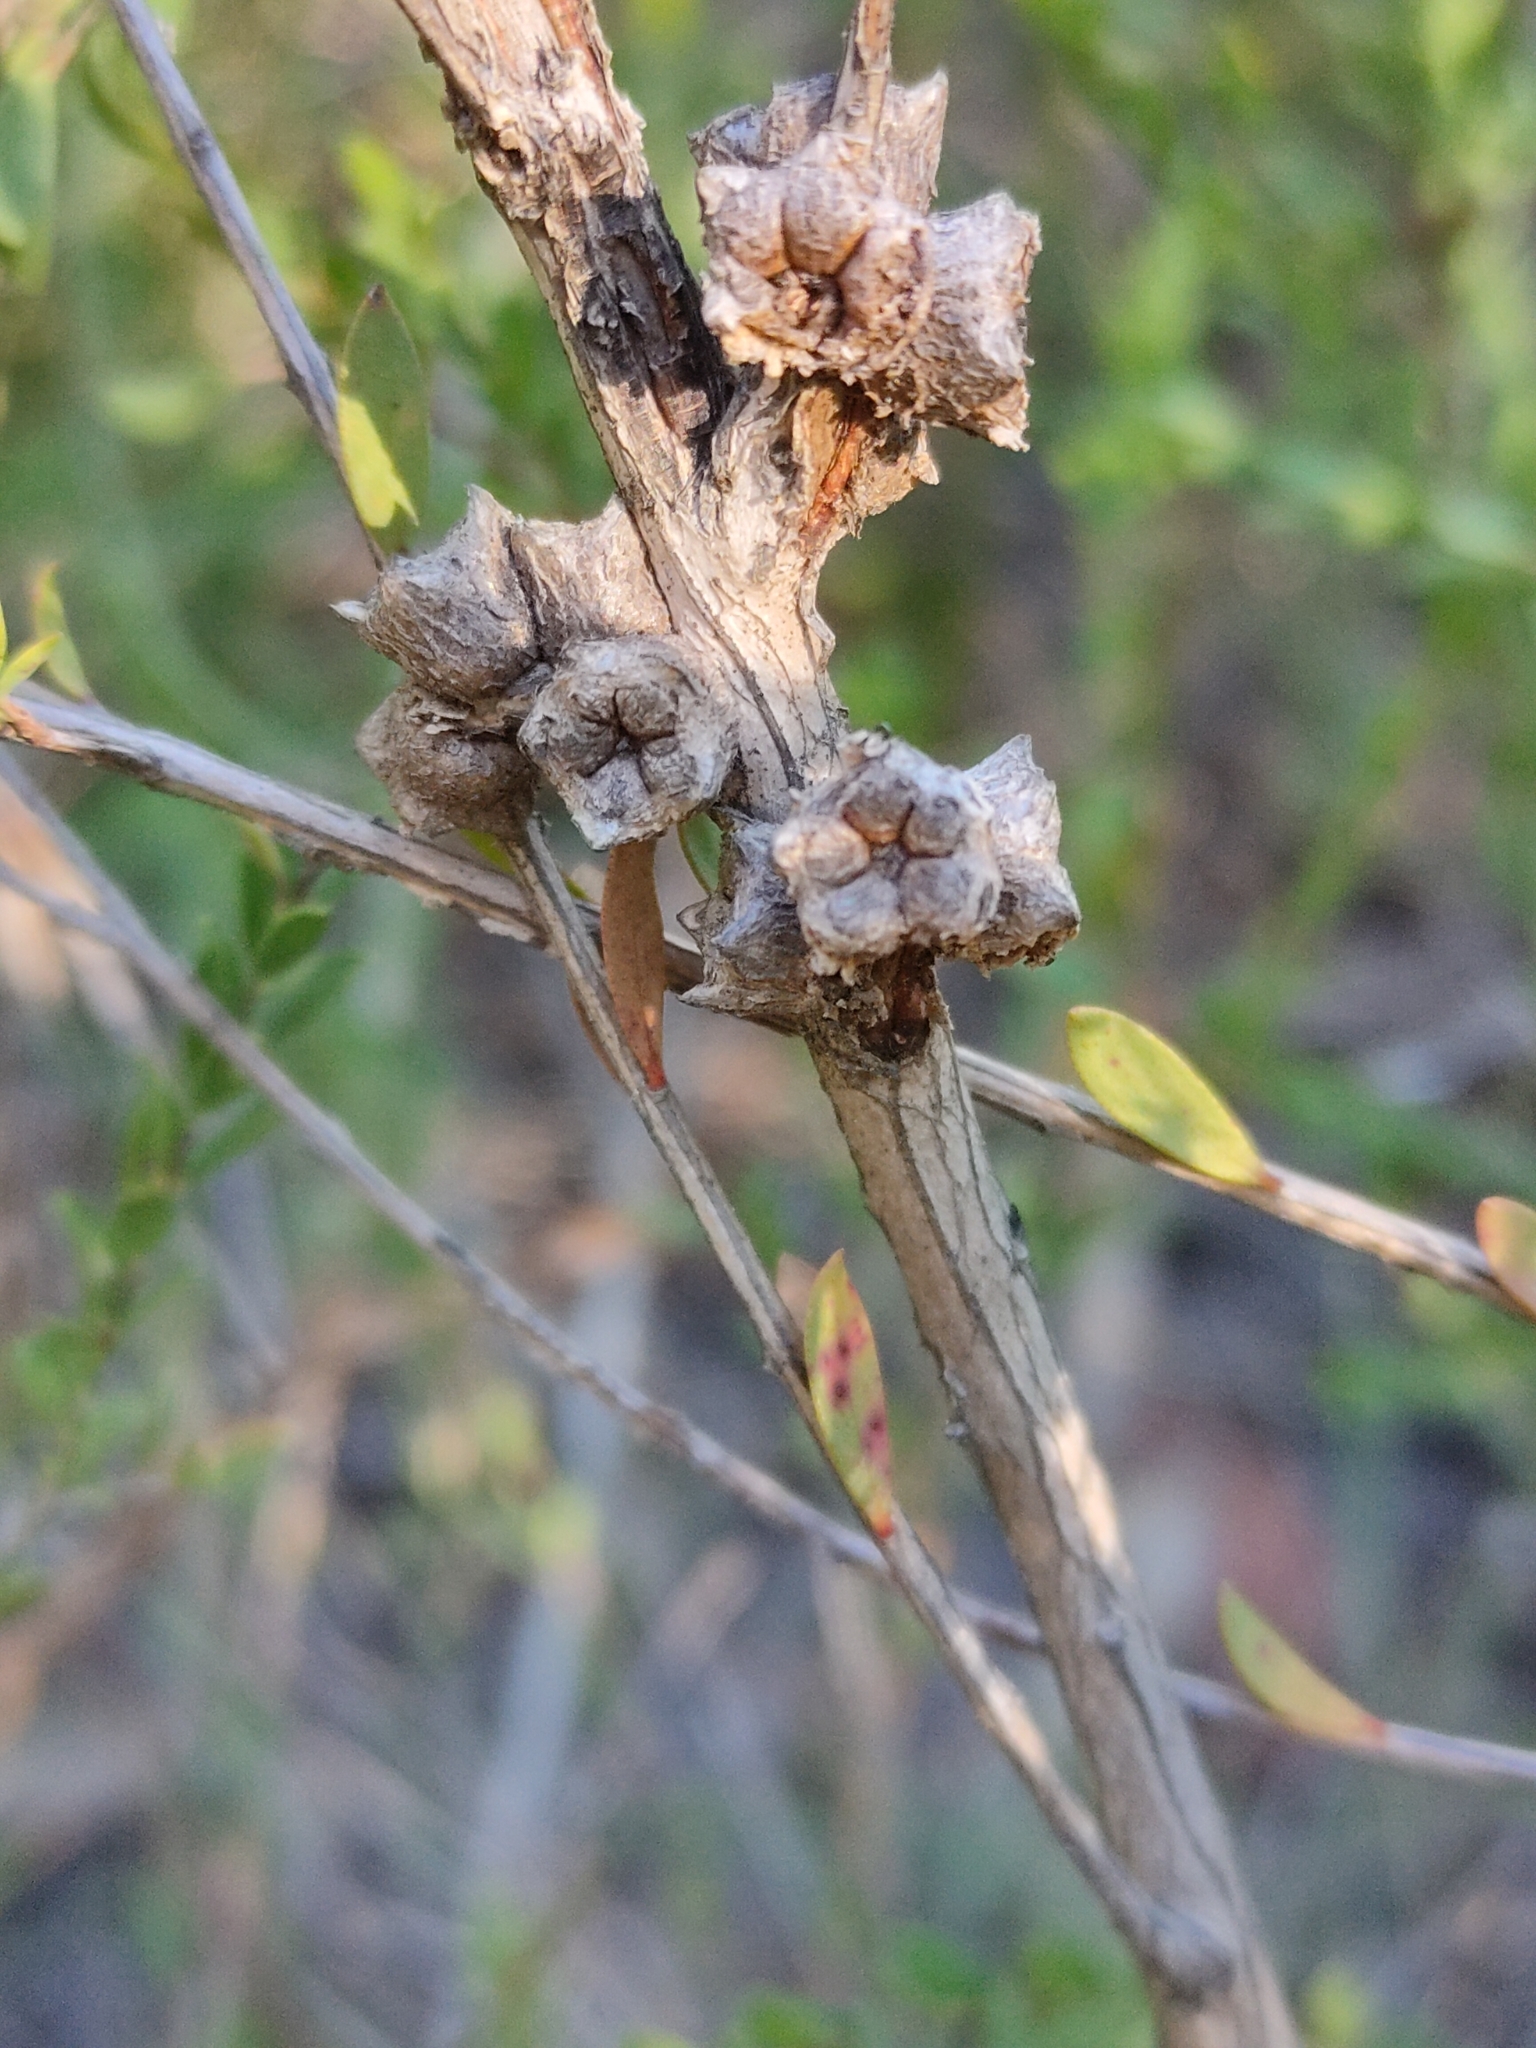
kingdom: Plantae
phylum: Tracheophyta
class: Magnoliopsida
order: Myrtales
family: Myrtaceae
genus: Melaleuca
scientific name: Melaleuca thymifolia
